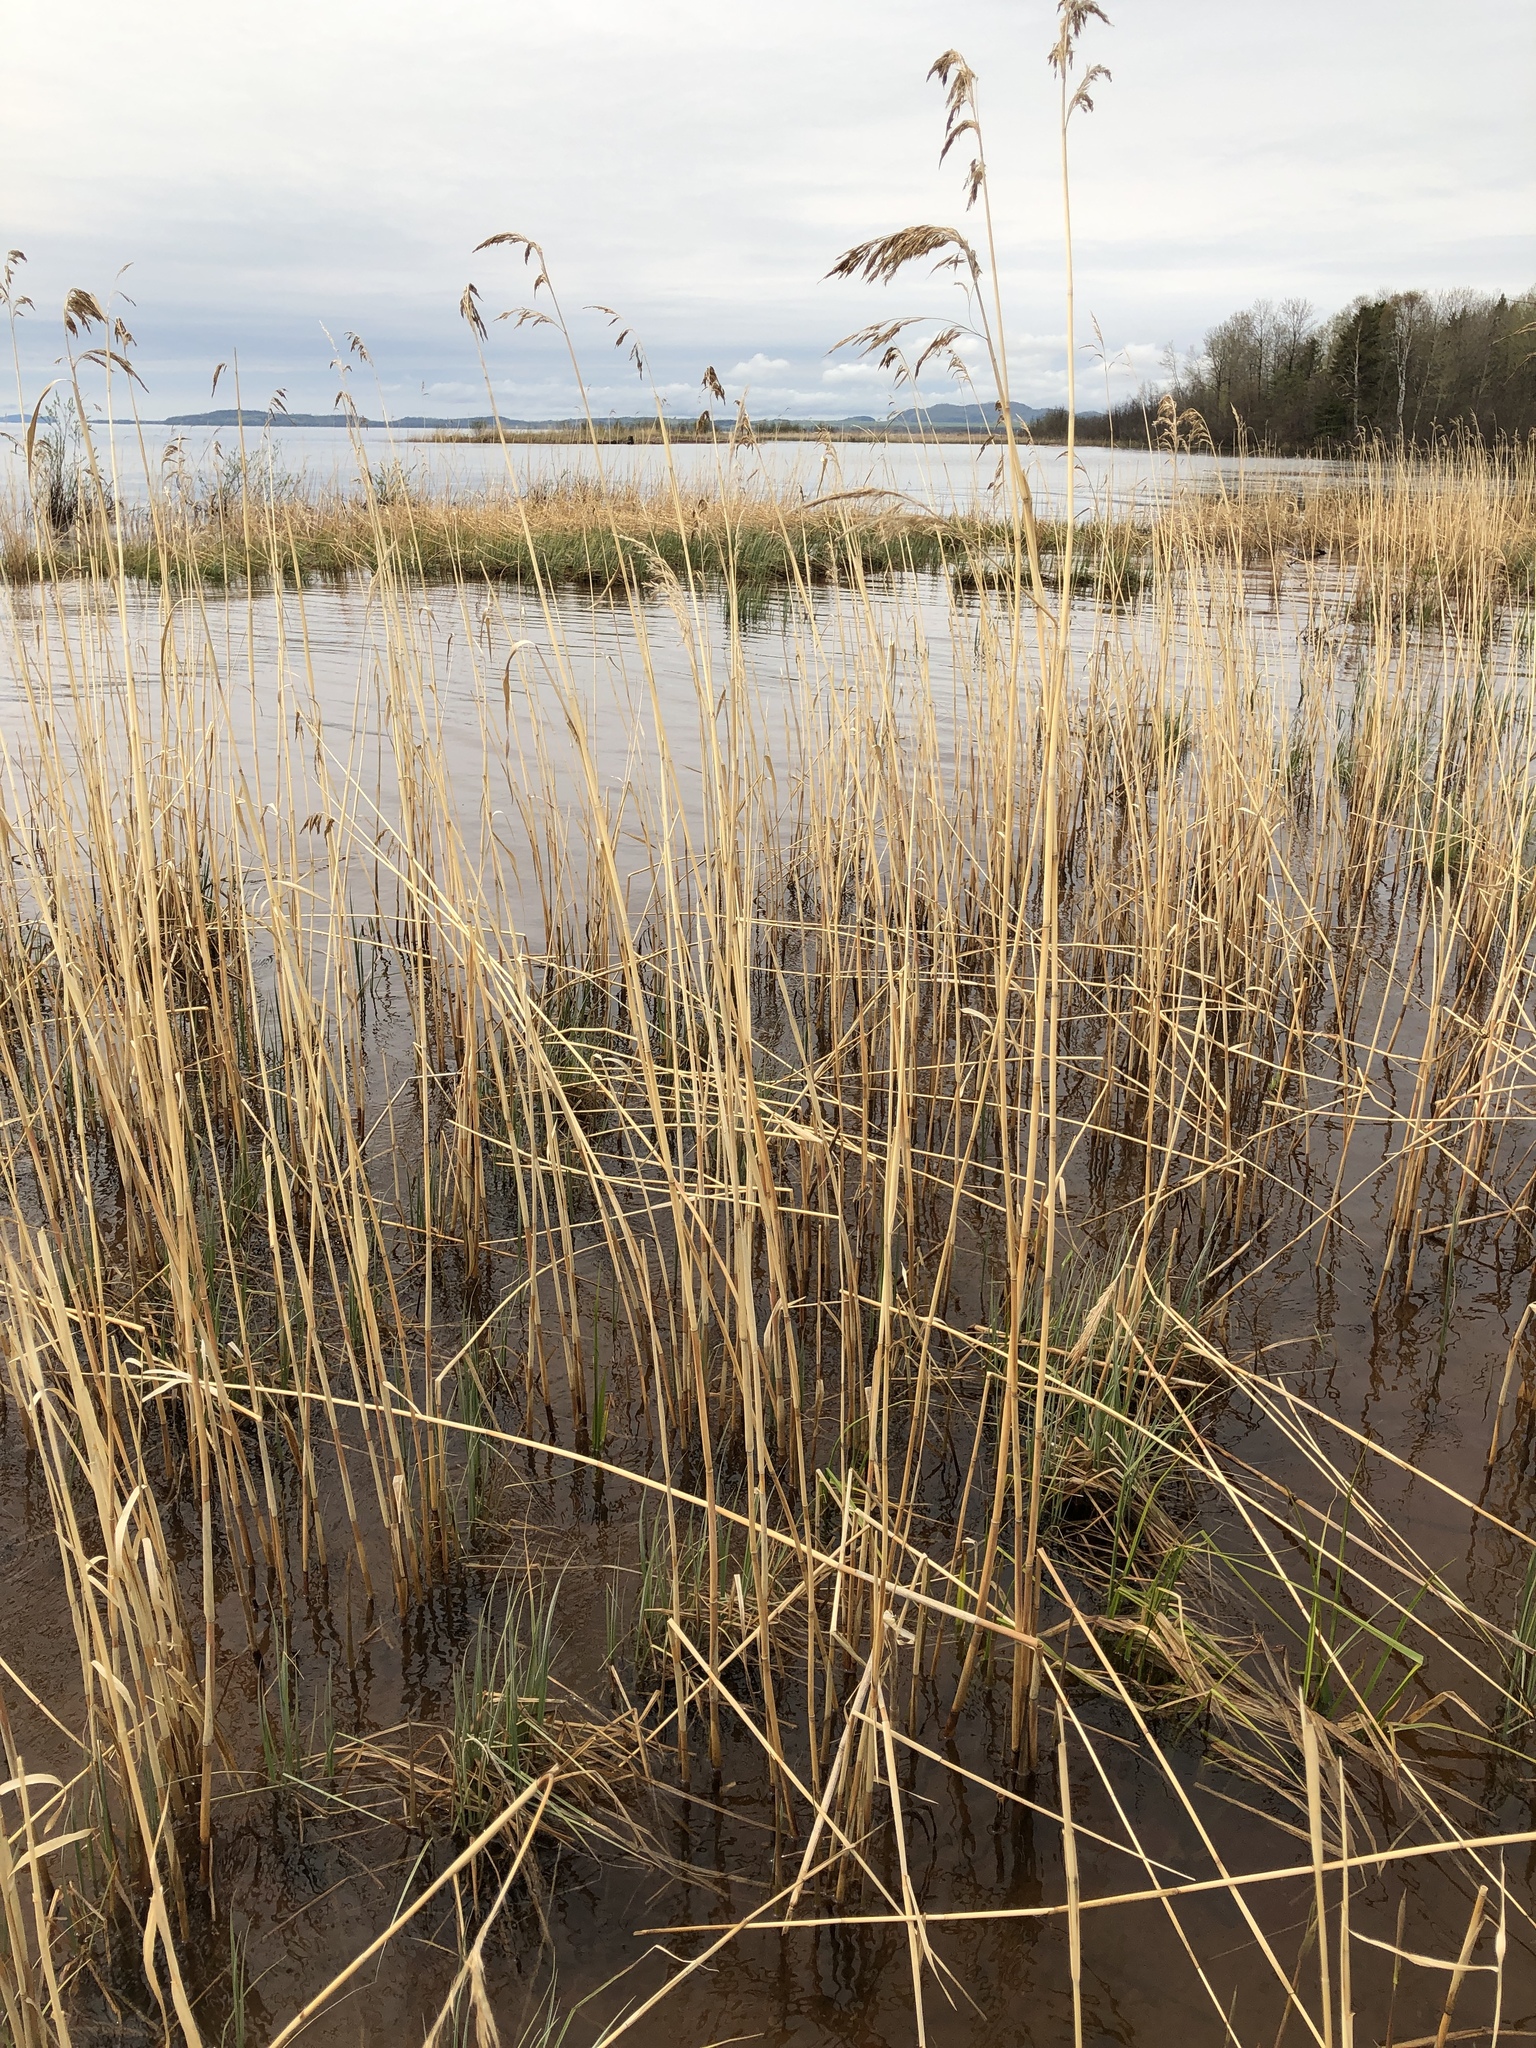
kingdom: Plantae
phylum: Tracheophyta
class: Liliopsida
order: Poales
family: Poaceae
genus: Phragmites
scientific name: Phragmites australis
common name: Common reed
